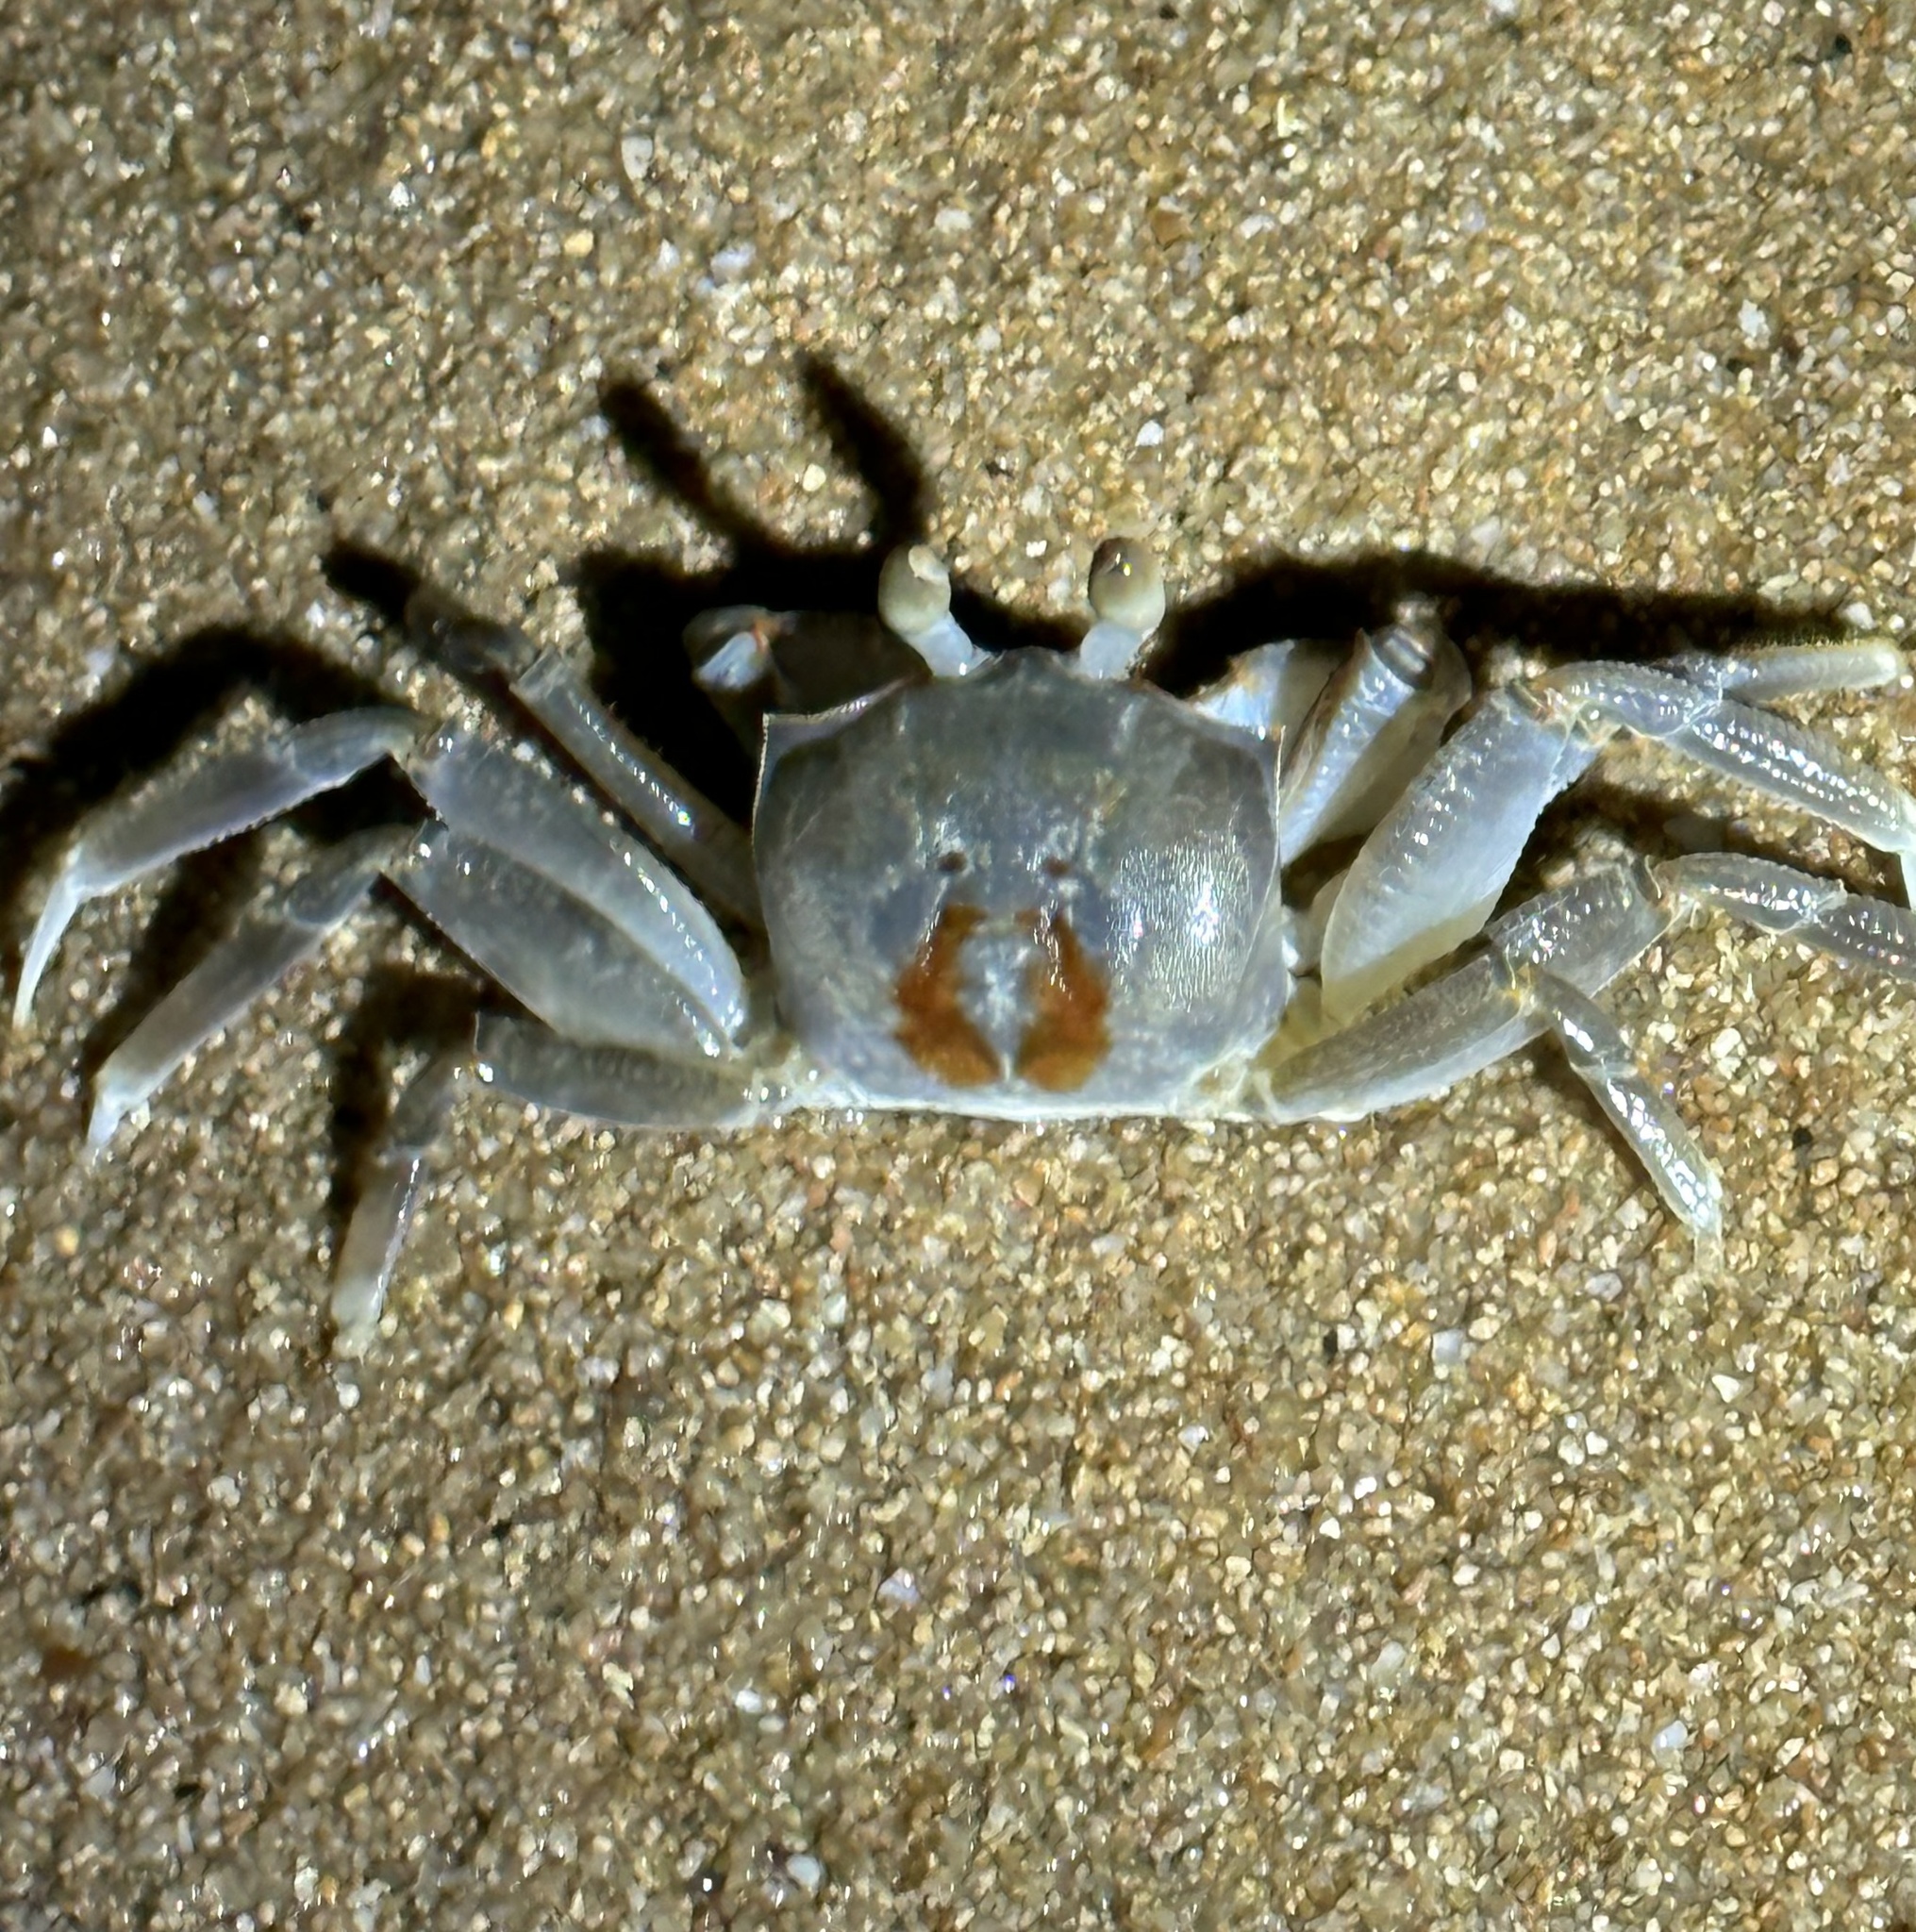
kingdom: Animalia
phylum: Arthropoda
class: Malacostraca
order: Decapoda
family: Ocypodidae
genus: Ocypode
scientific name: Ocypode ceratophthalmus
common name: Indo-pacific ghost crab
